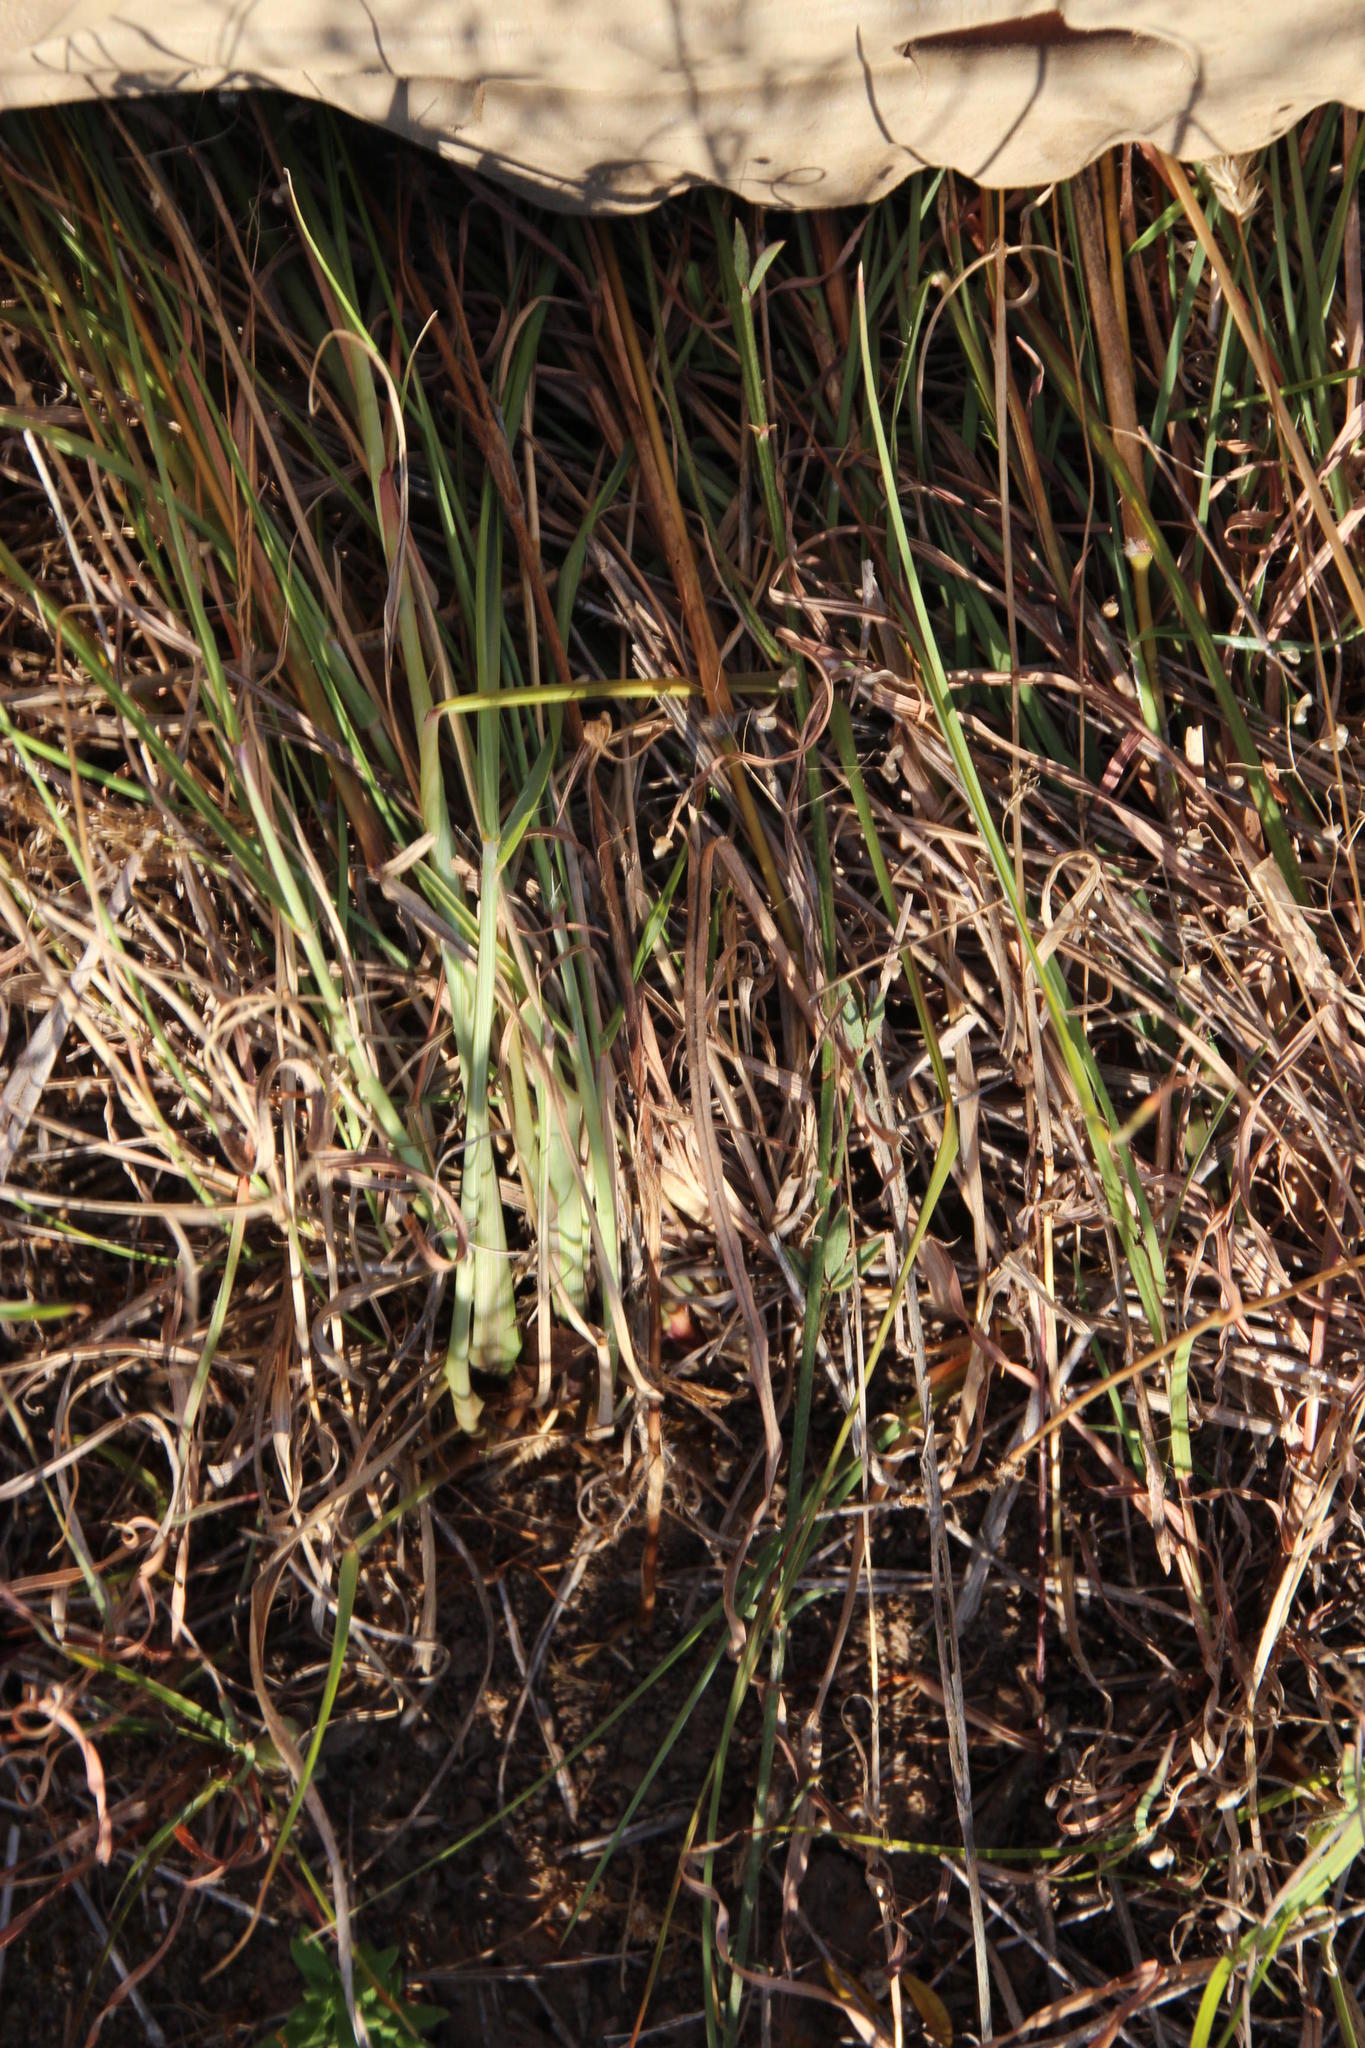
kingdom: Plantae
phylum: Tracheophyta
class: Liliopsida
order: Poales
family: Poaceae
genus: Themeda
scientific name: Themeda triandra
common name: Kangaroo grass
